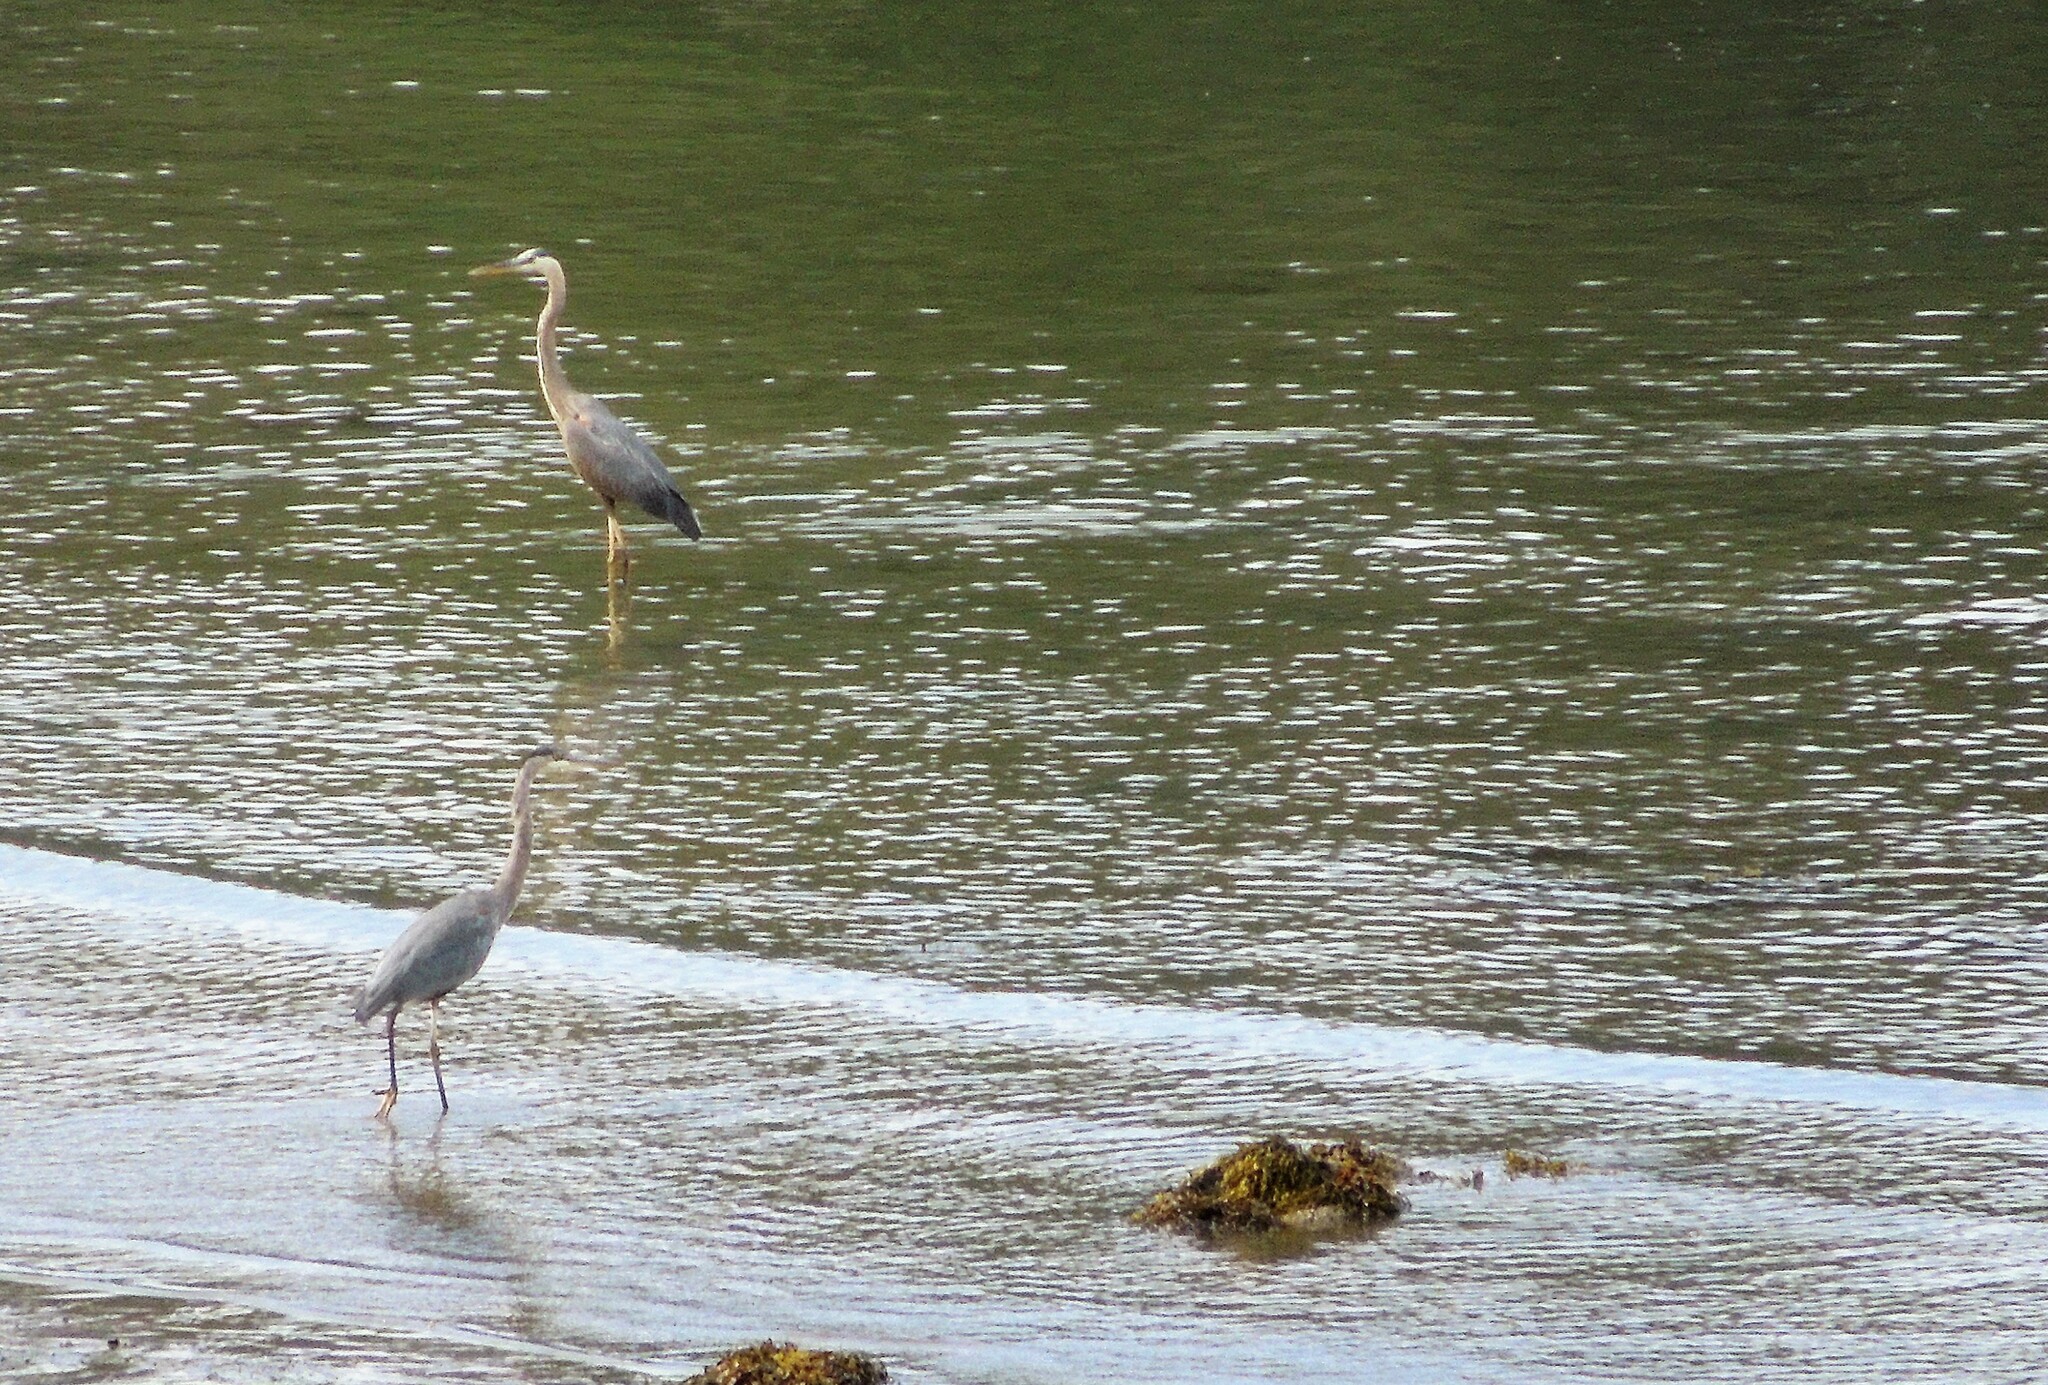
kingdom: Animalia
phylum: Chordata
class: Aves
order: Pelecaniformes
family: Ardeidae
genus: Ardea
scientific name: Ardea herodias
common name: Great blue heron
